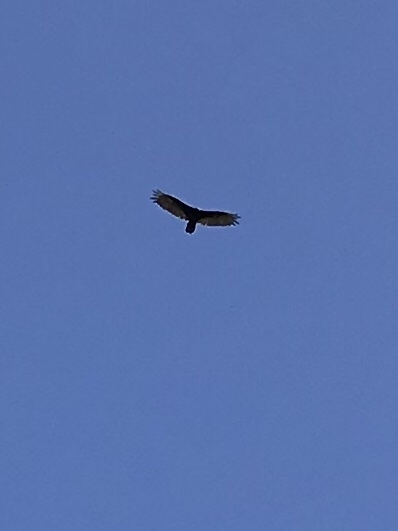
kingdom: Animalia
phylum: Chordata
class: Aves
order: Accipitriformes
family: Cathartidae
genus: Cathartes
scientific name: Cathartes aura
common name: Turkey vulture
